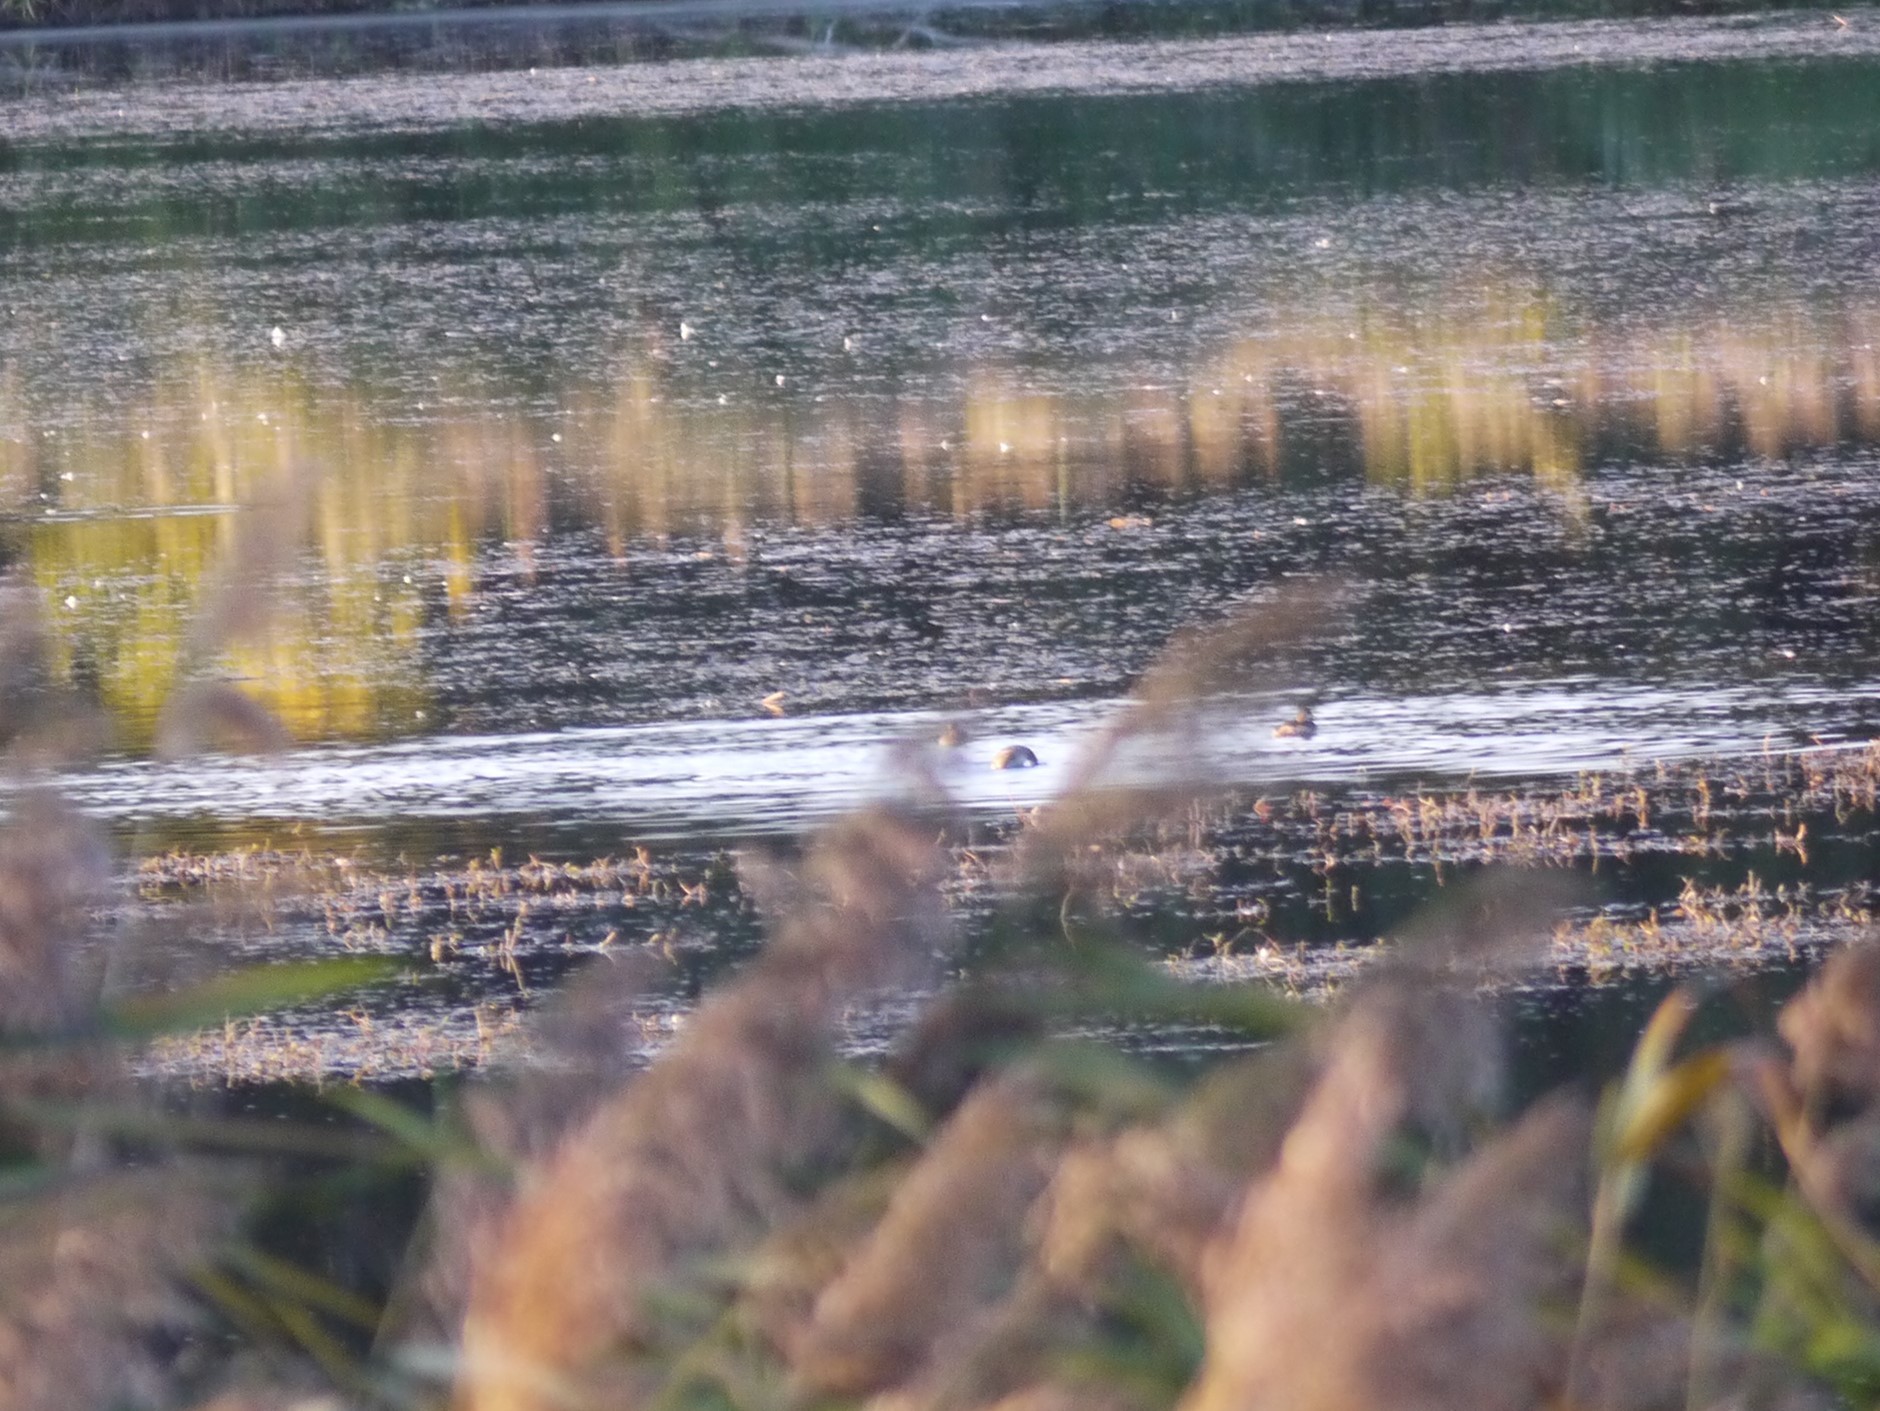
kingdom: Animalia
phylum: Chordata
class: Aves
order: Podicipediformes
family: Podicipedidae
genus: Tachybaptus
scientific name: Tachybaptus ruficollis
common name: Little grebe
